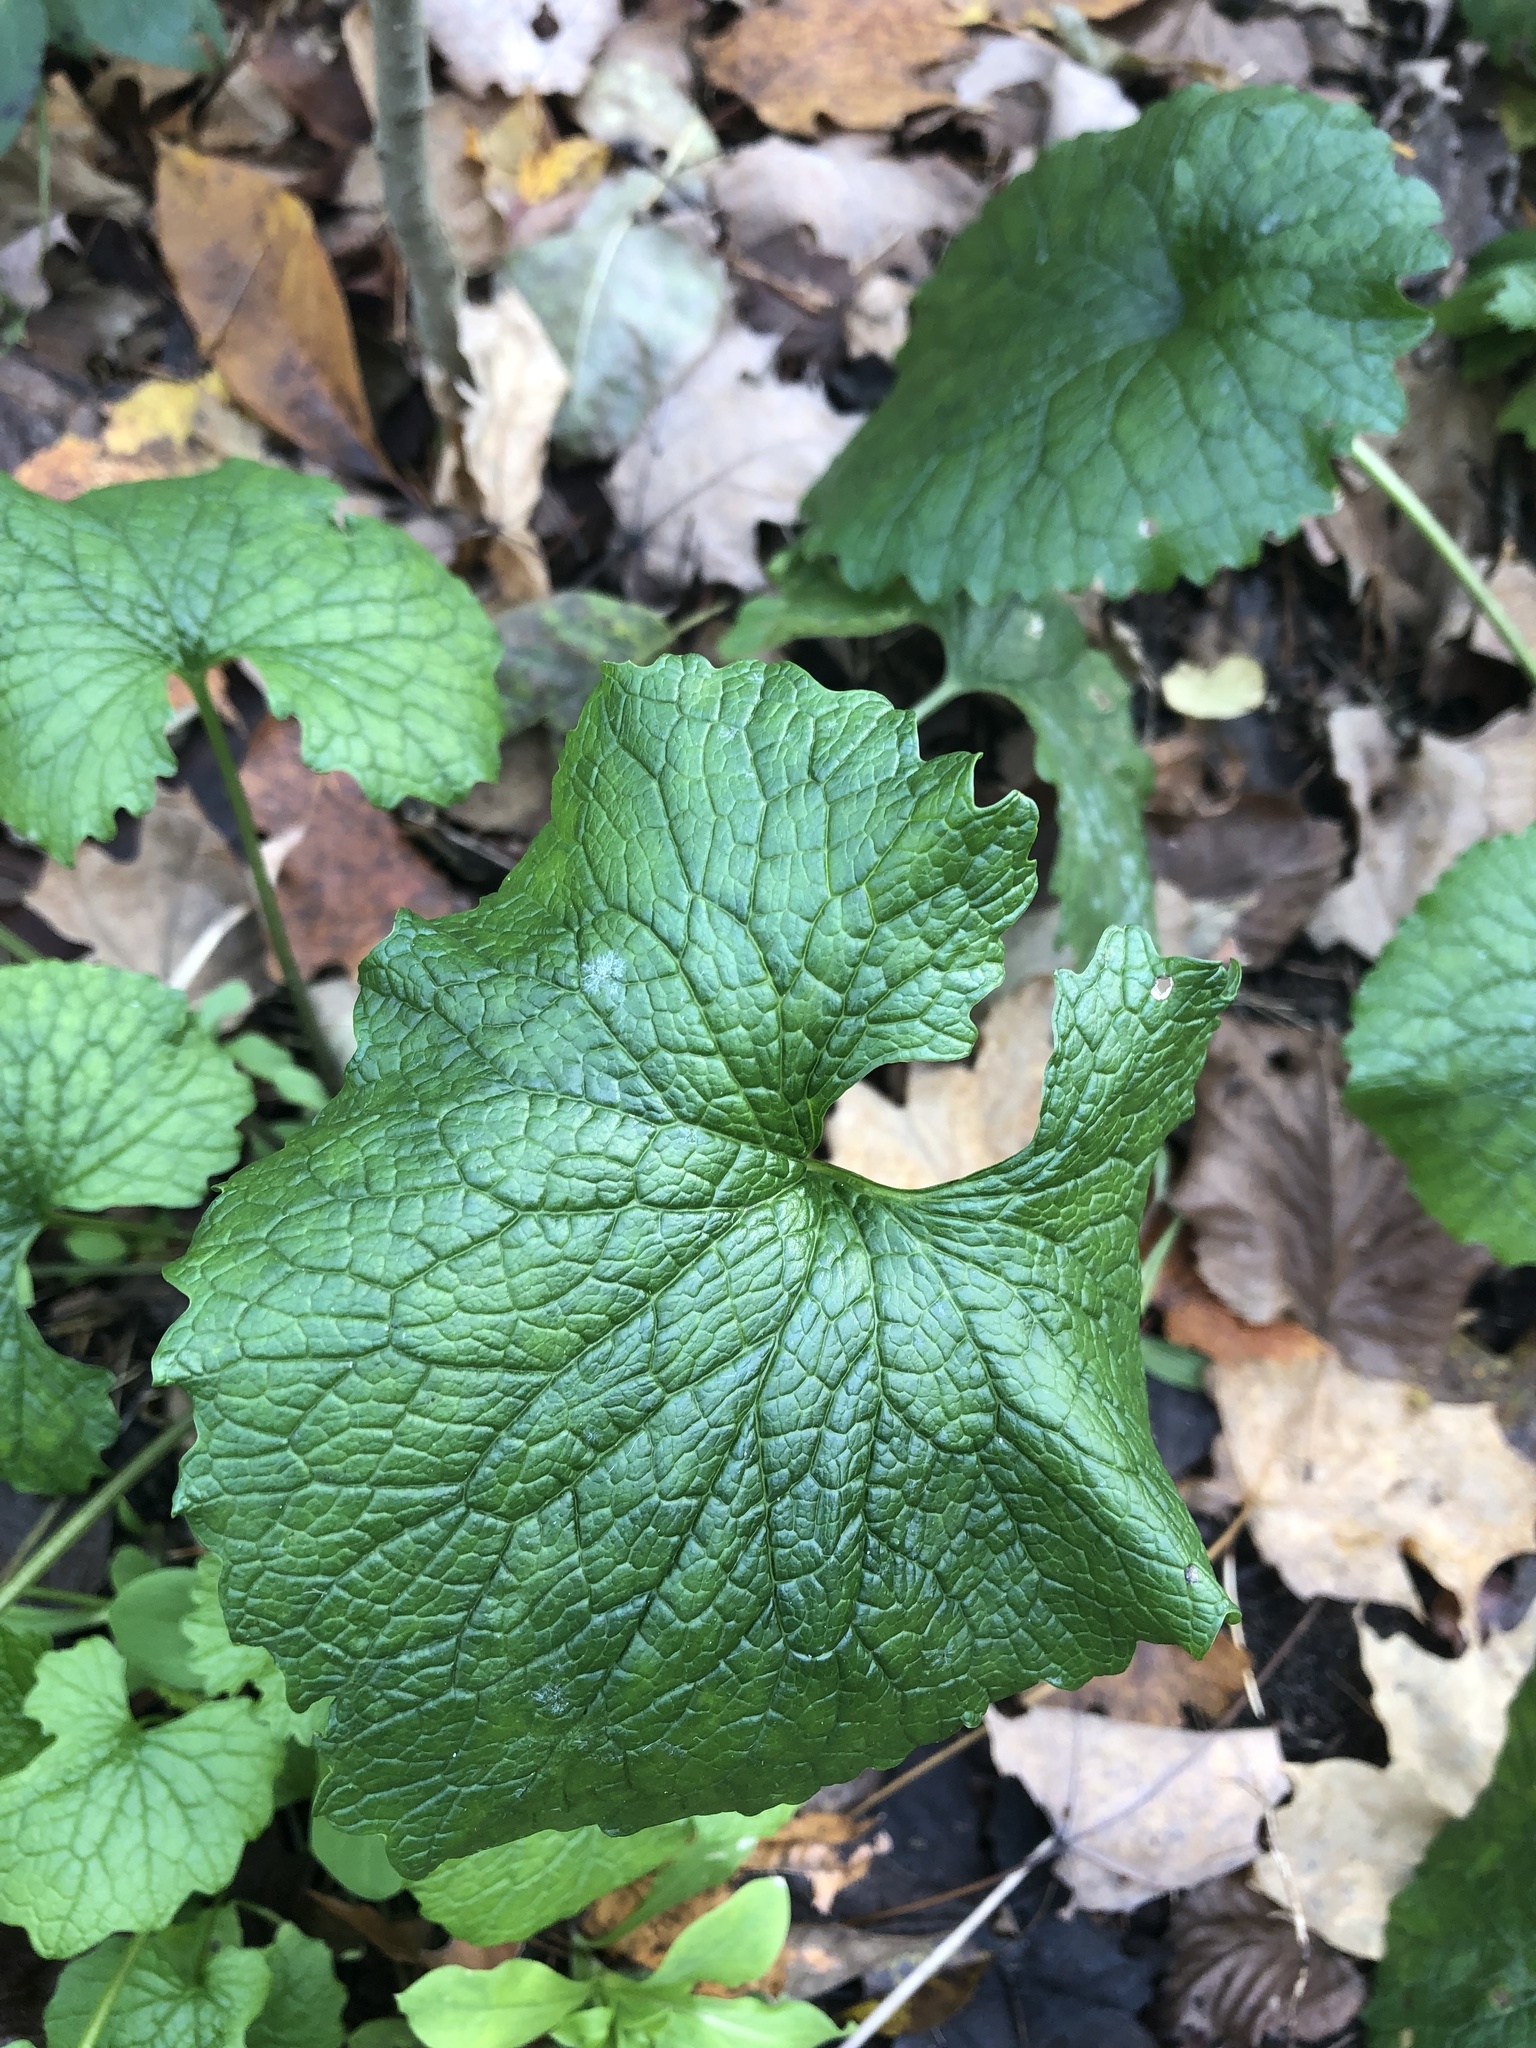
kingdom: Plantae
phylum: Tracheophyta
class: Magnoliopsida
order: Brassicales
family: Brassicaceae
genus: Alliaria
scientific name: Alliaria petiolata
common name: Garlic mustard
